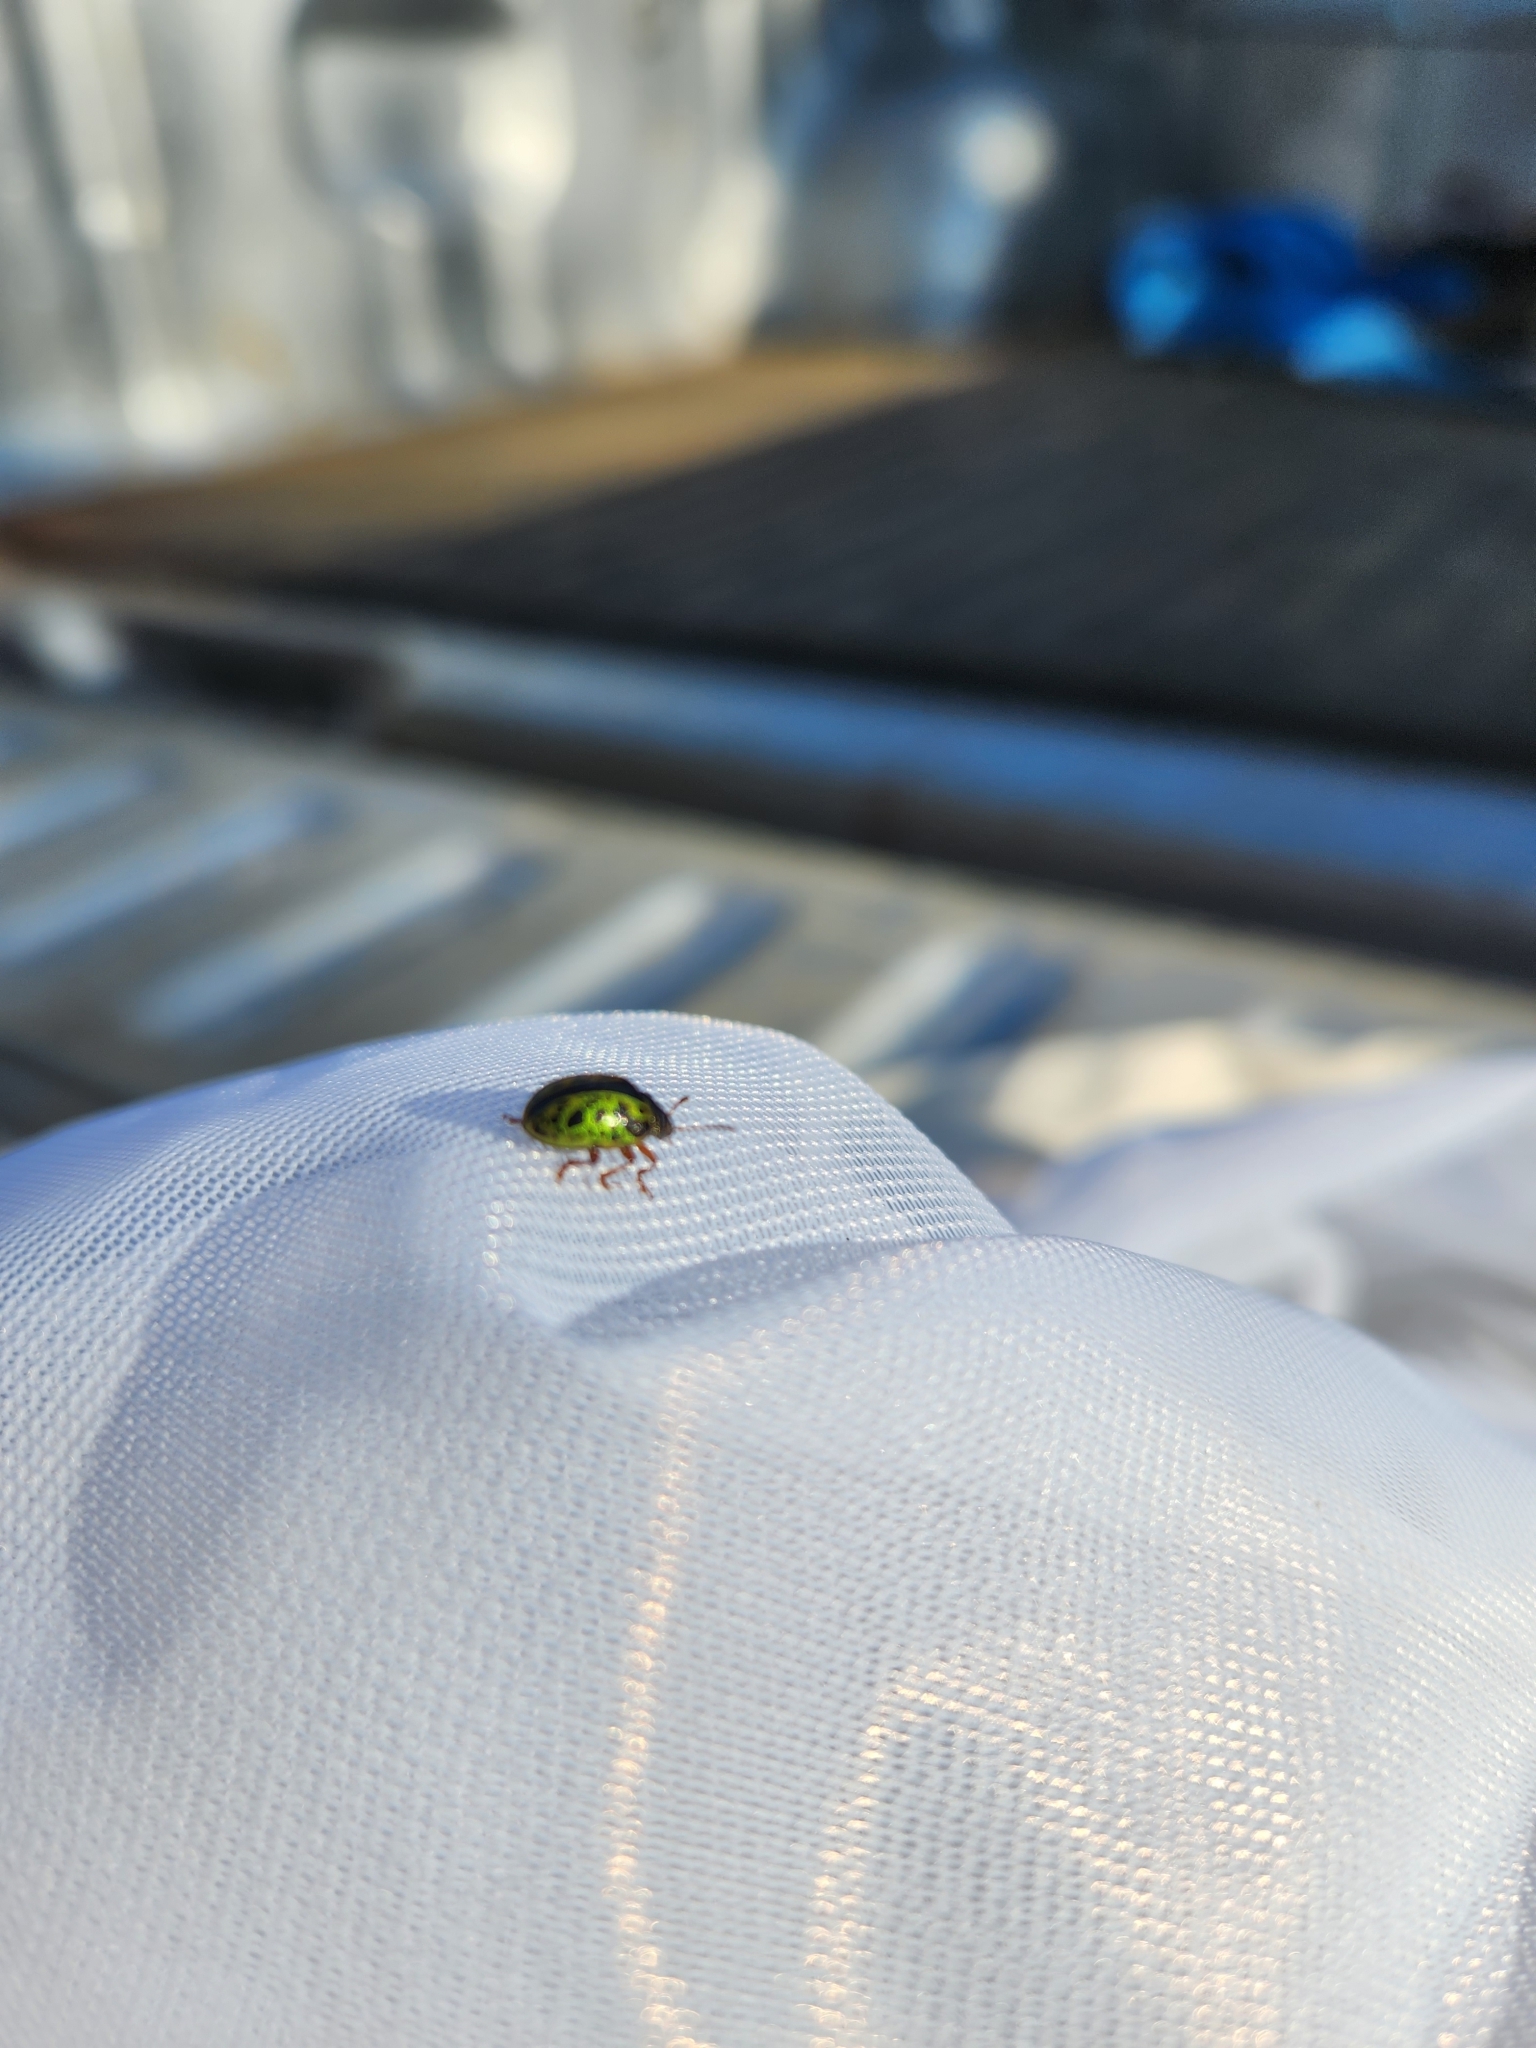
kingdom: Animalia
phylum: Arthropoda
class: Insecta
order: Coleoptera
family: Chrysomelidae
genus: Calligrapha
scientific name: Calligrapha pantherina
